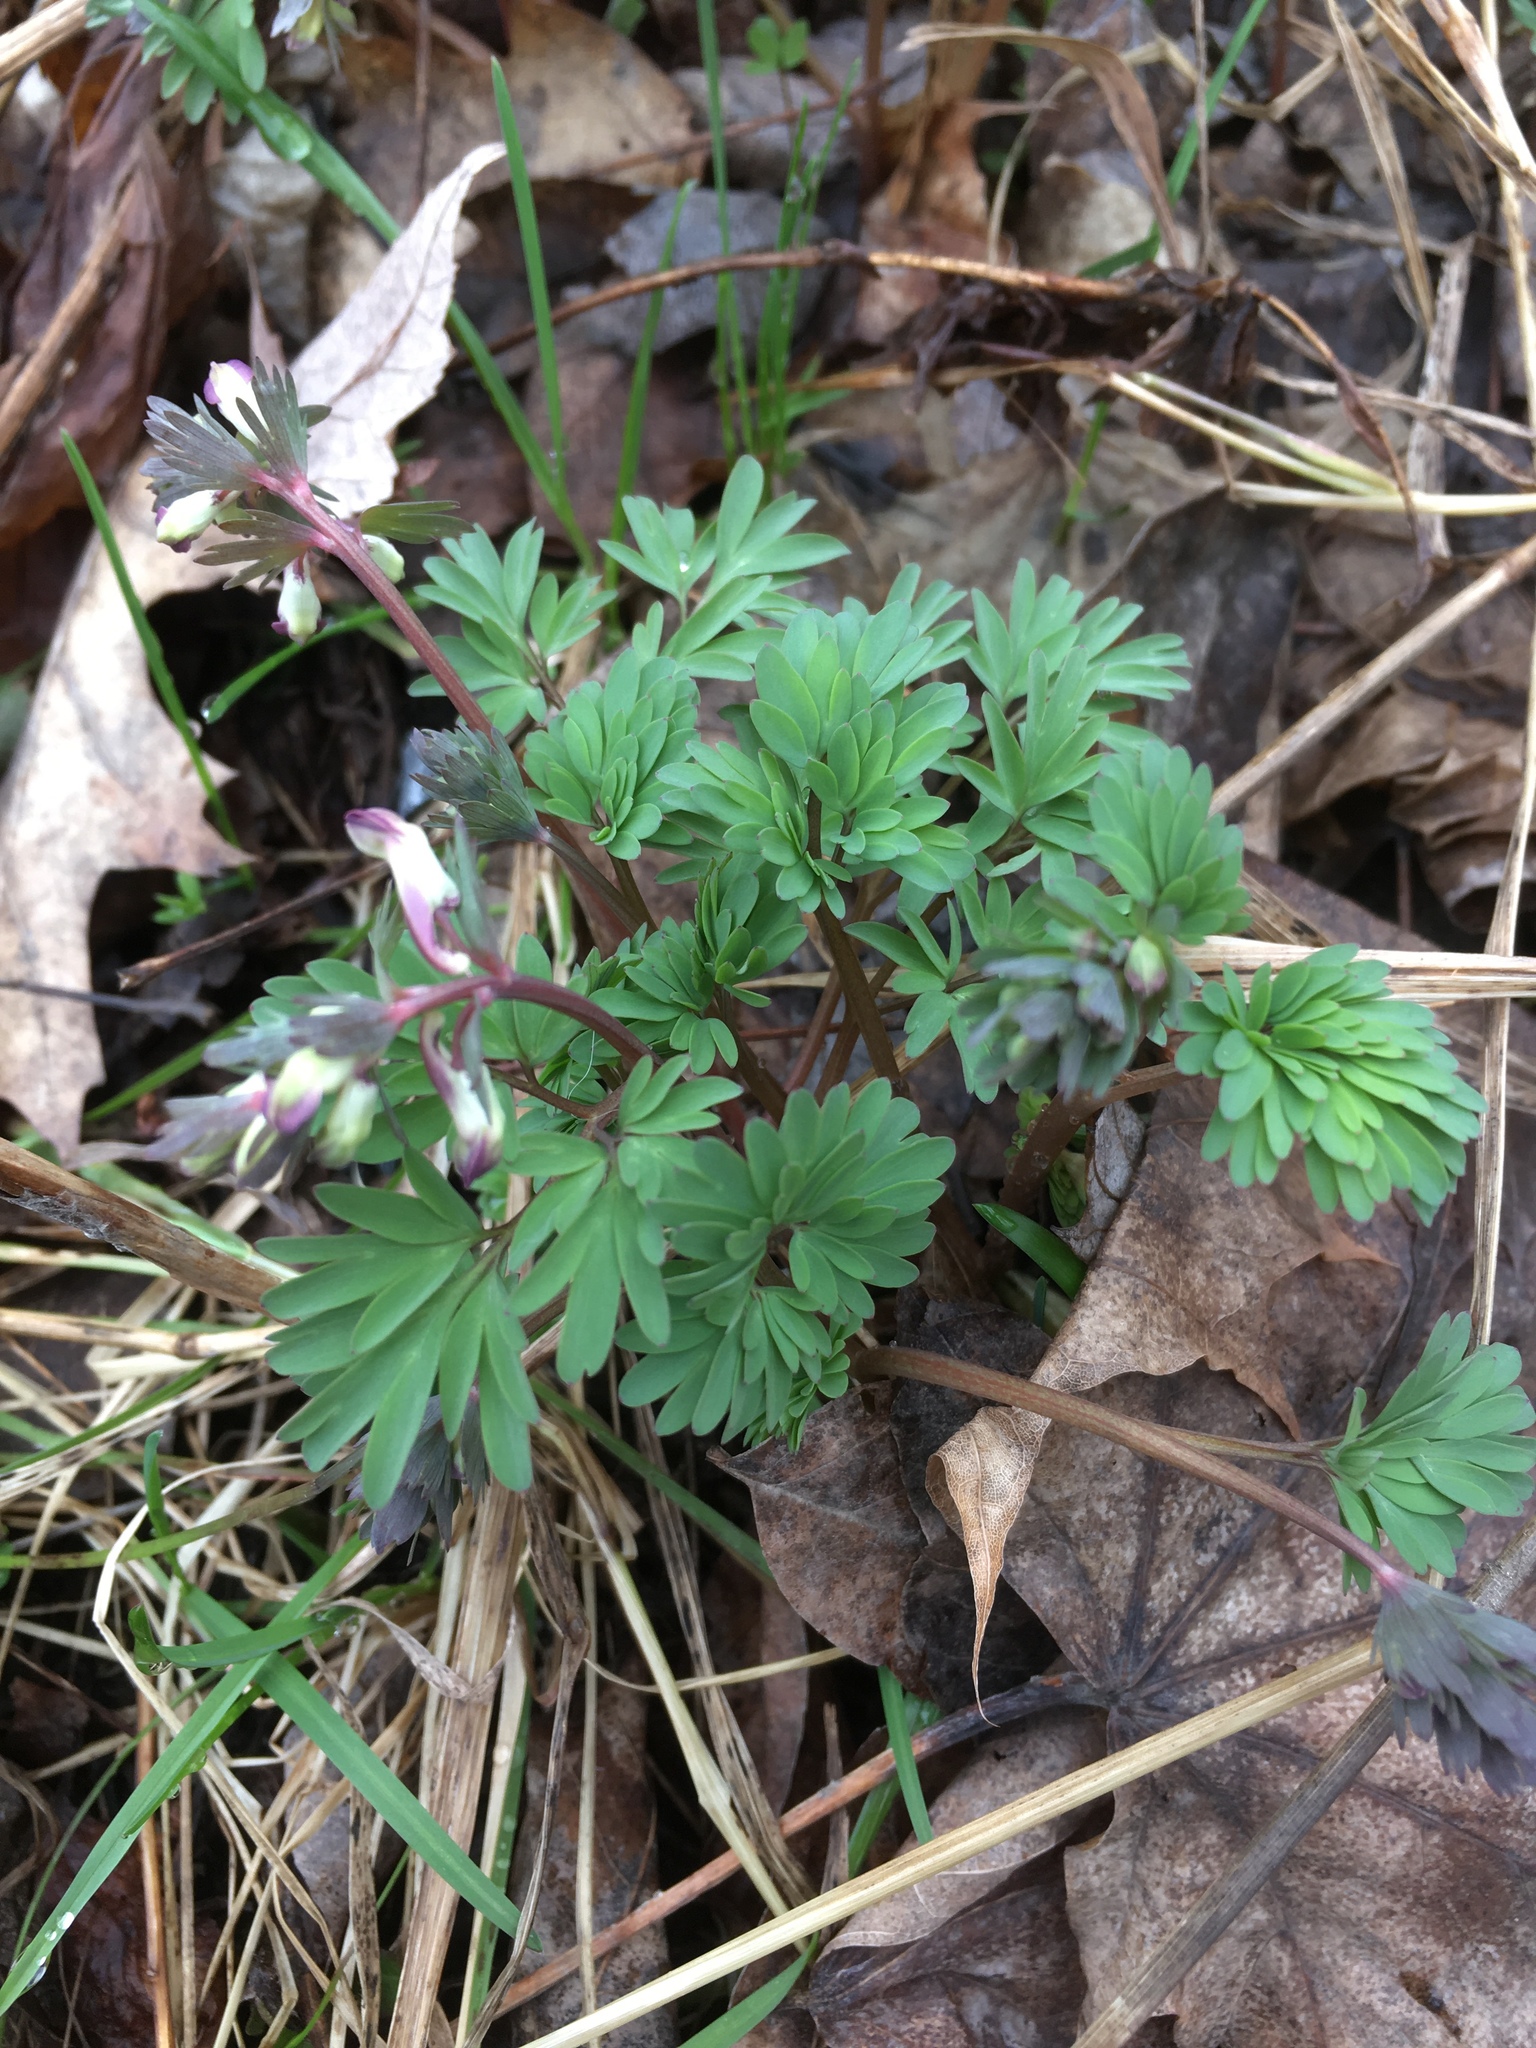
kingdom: Plantae
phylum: Tracheophyta
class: Magnoliopsida
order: Ranunculales
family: Papaveraceae
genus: Corydalis
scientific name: Corydalis solida
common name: Bird-in-a-bush
